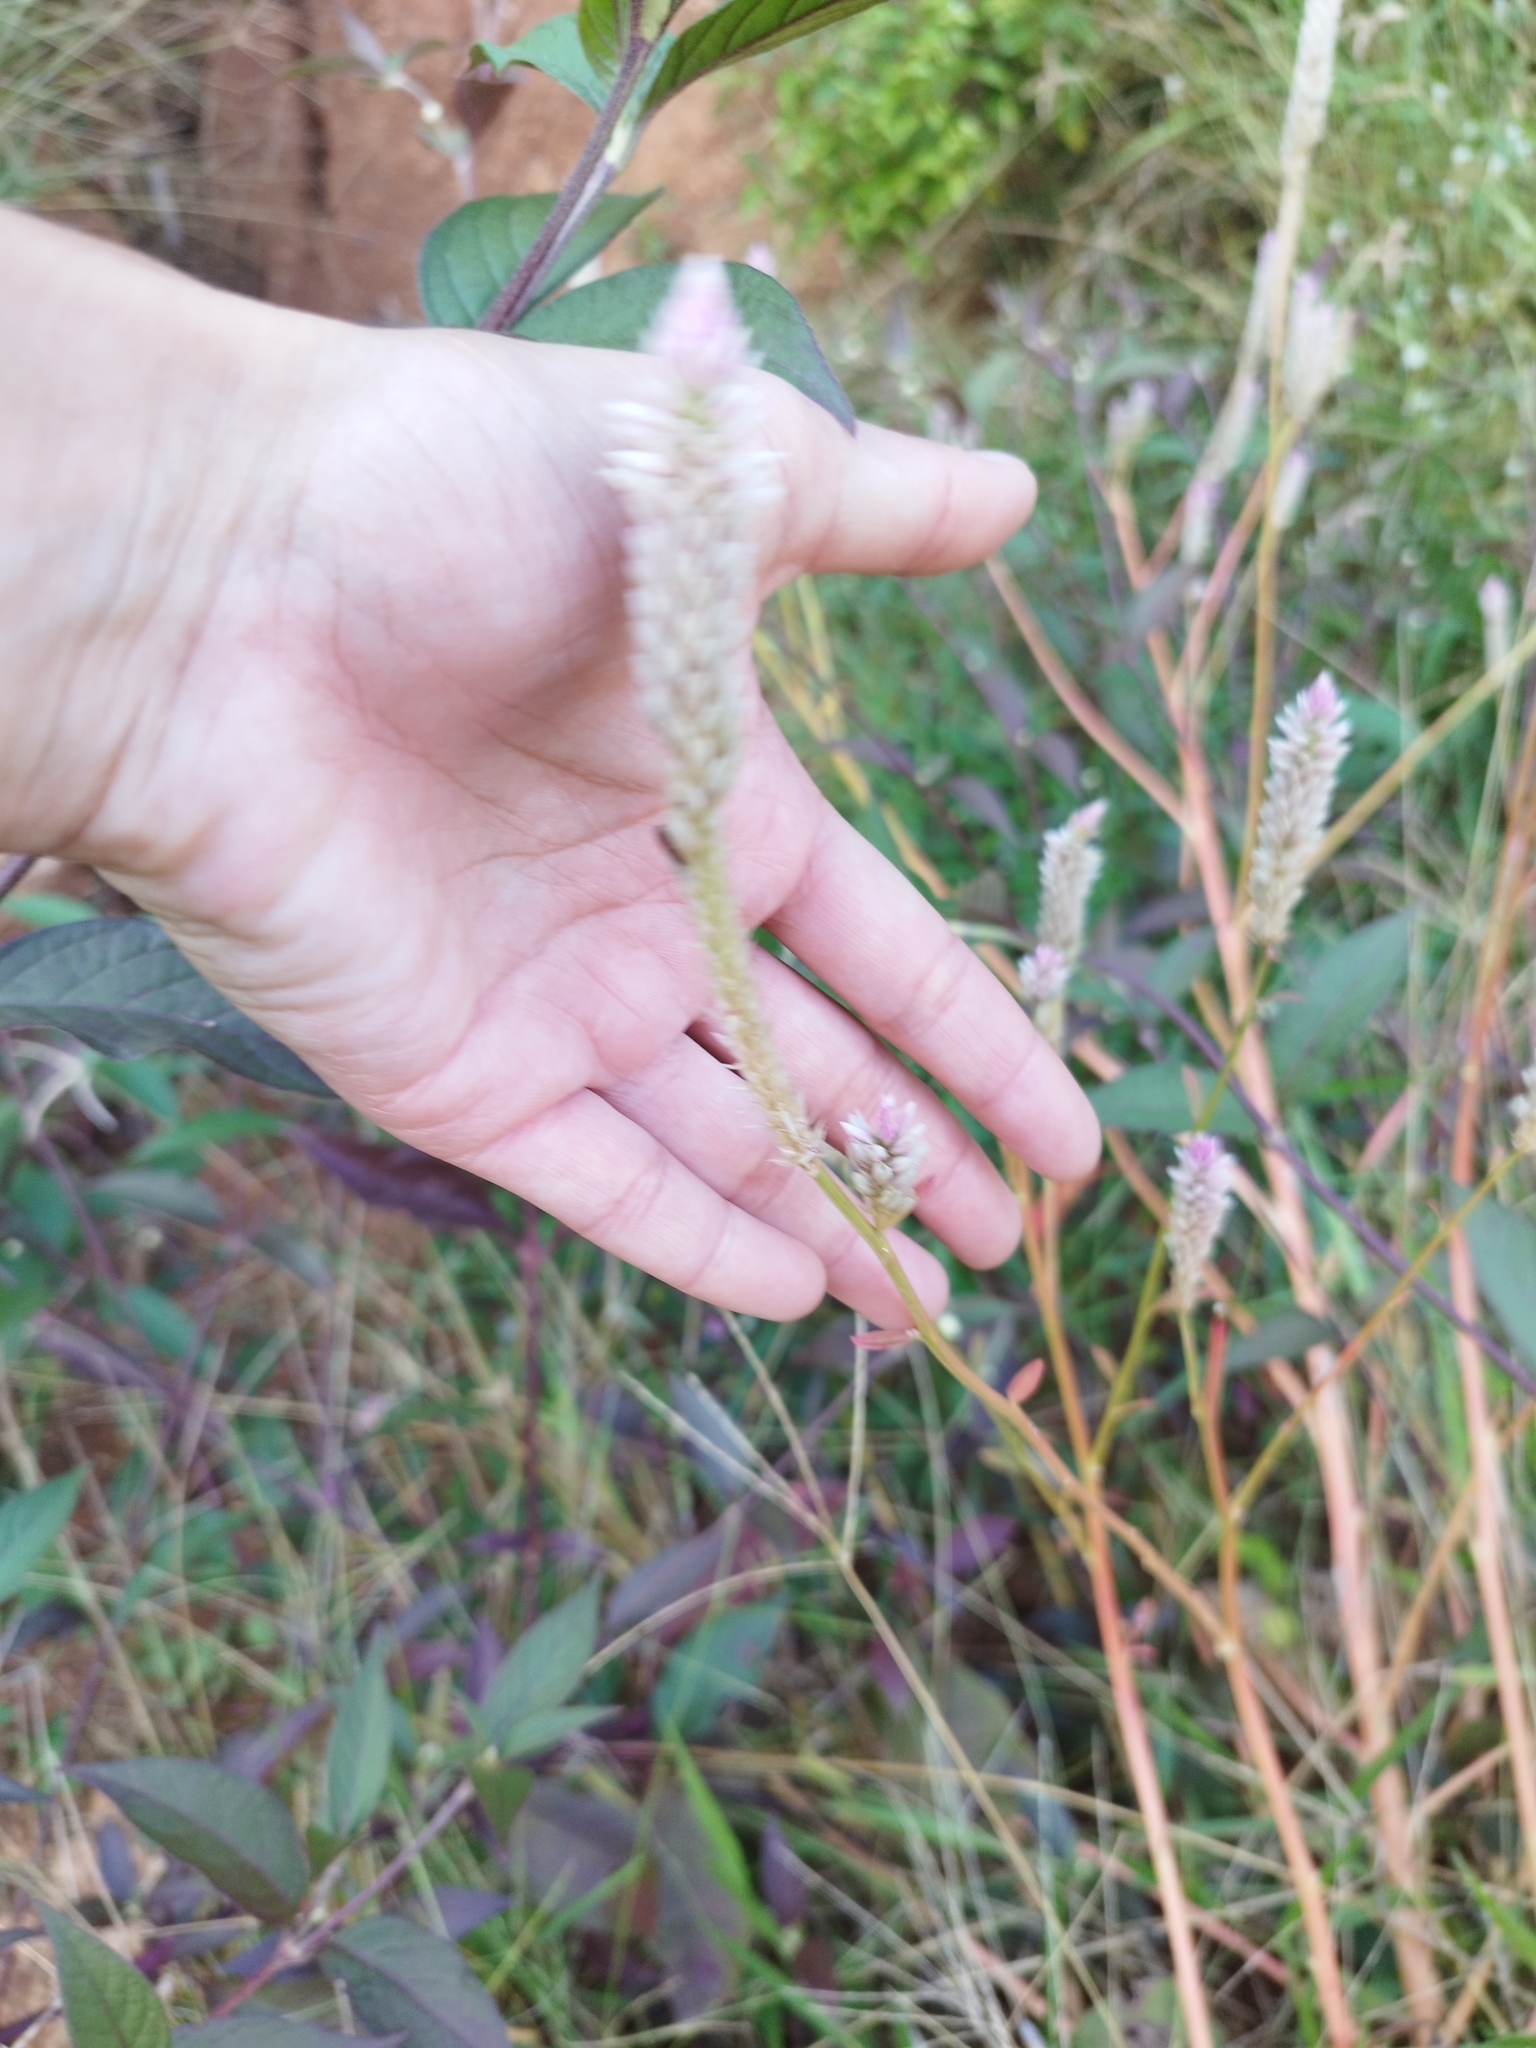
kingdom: Plantae
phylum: Tracheophyta
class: Magnoliopsida
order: Caryophyllales
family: Amaranthaceae
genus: Celosia
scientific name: Celosia argentea
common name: Feather cockscomb
